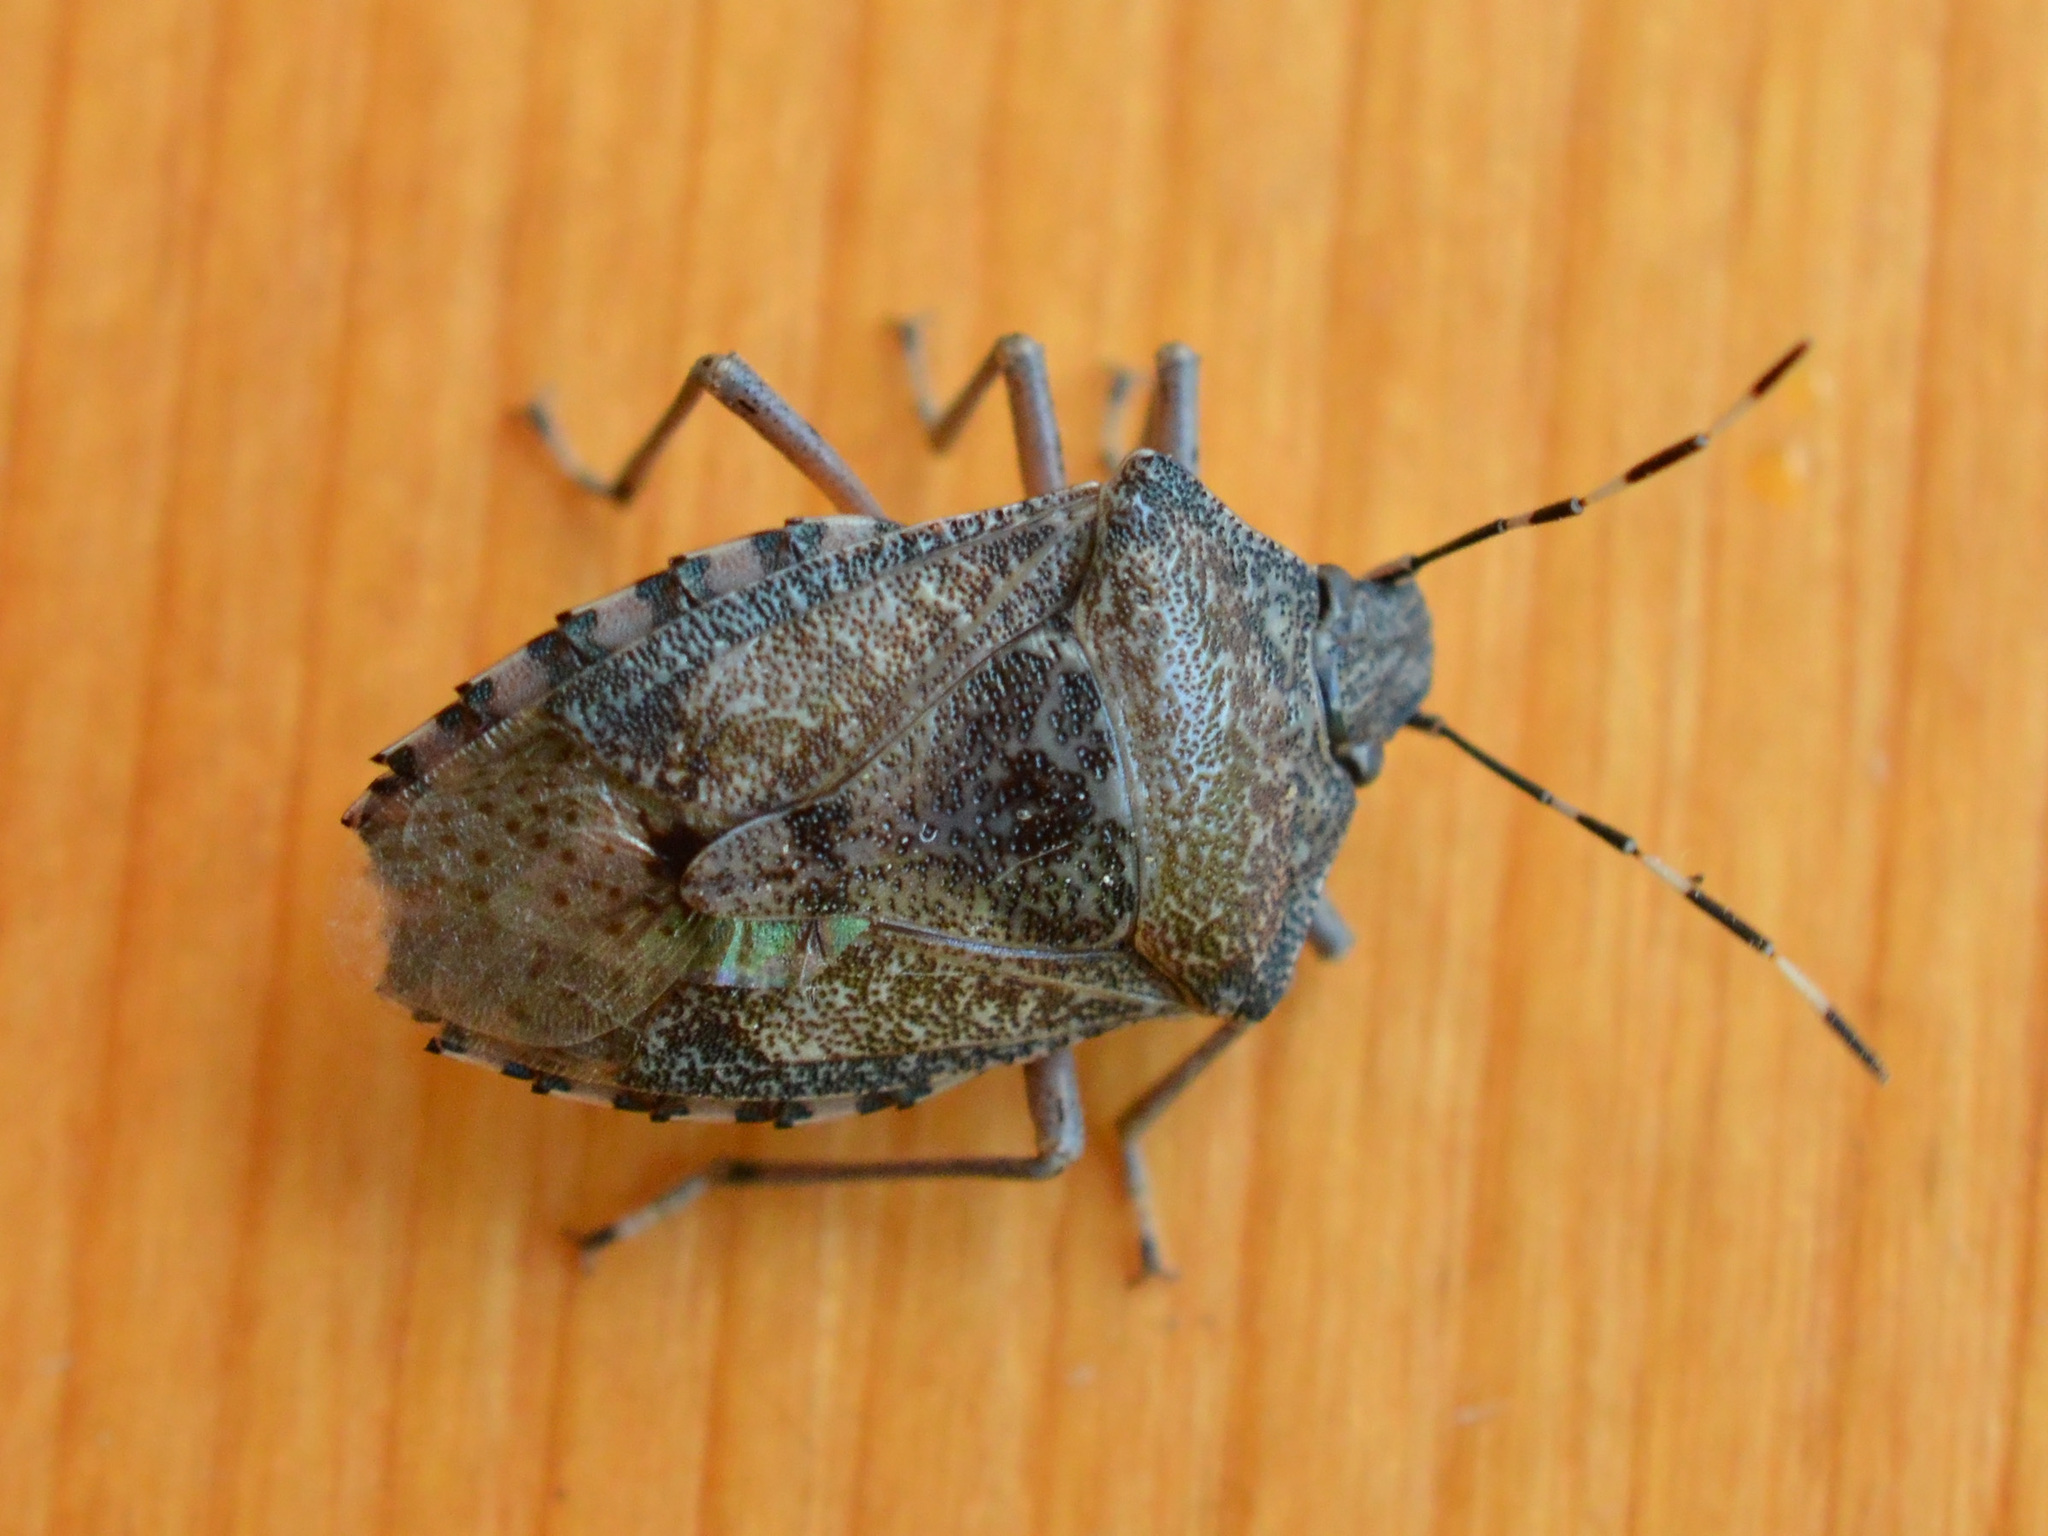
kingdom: Animalia
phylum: Arthropoda
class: Insecta
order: Hemiptera
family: Pentatomidae
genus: Rhaphigaster
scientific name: Rhaphigaster nebulosa
